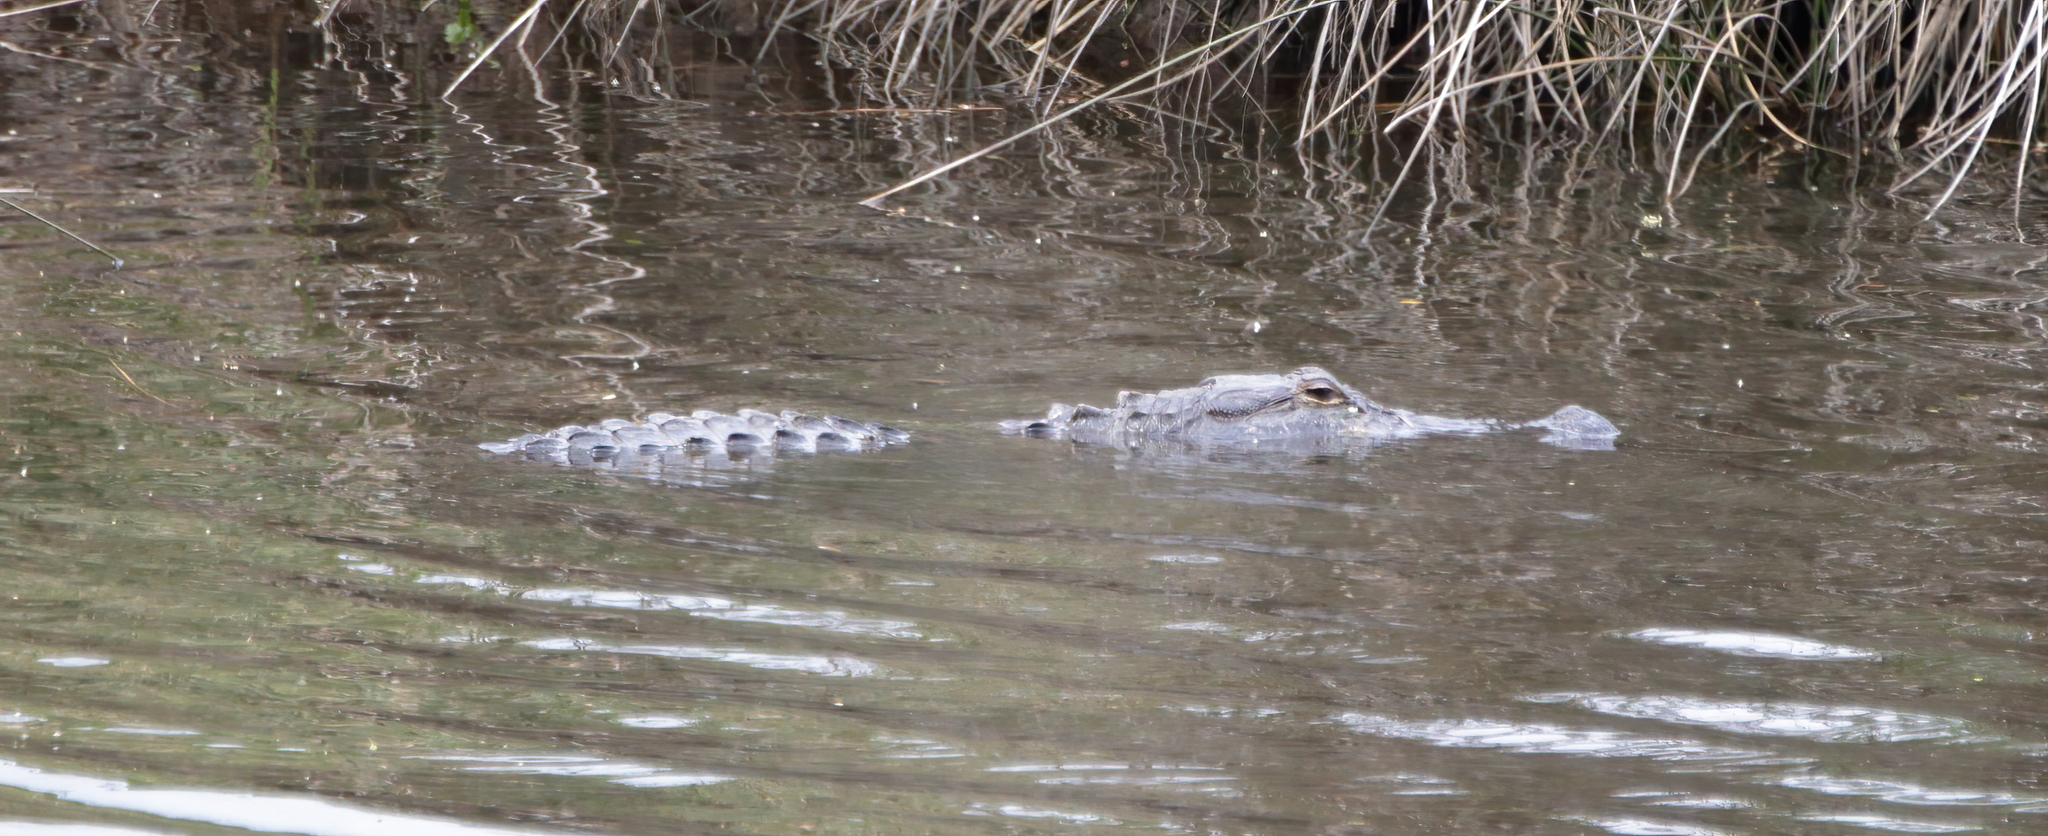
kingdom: Animalia
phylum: Chordata
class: Crocodylia
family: Alligatoridae
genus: Alligator
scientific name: Alligator mississippiensis
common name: American alligator
